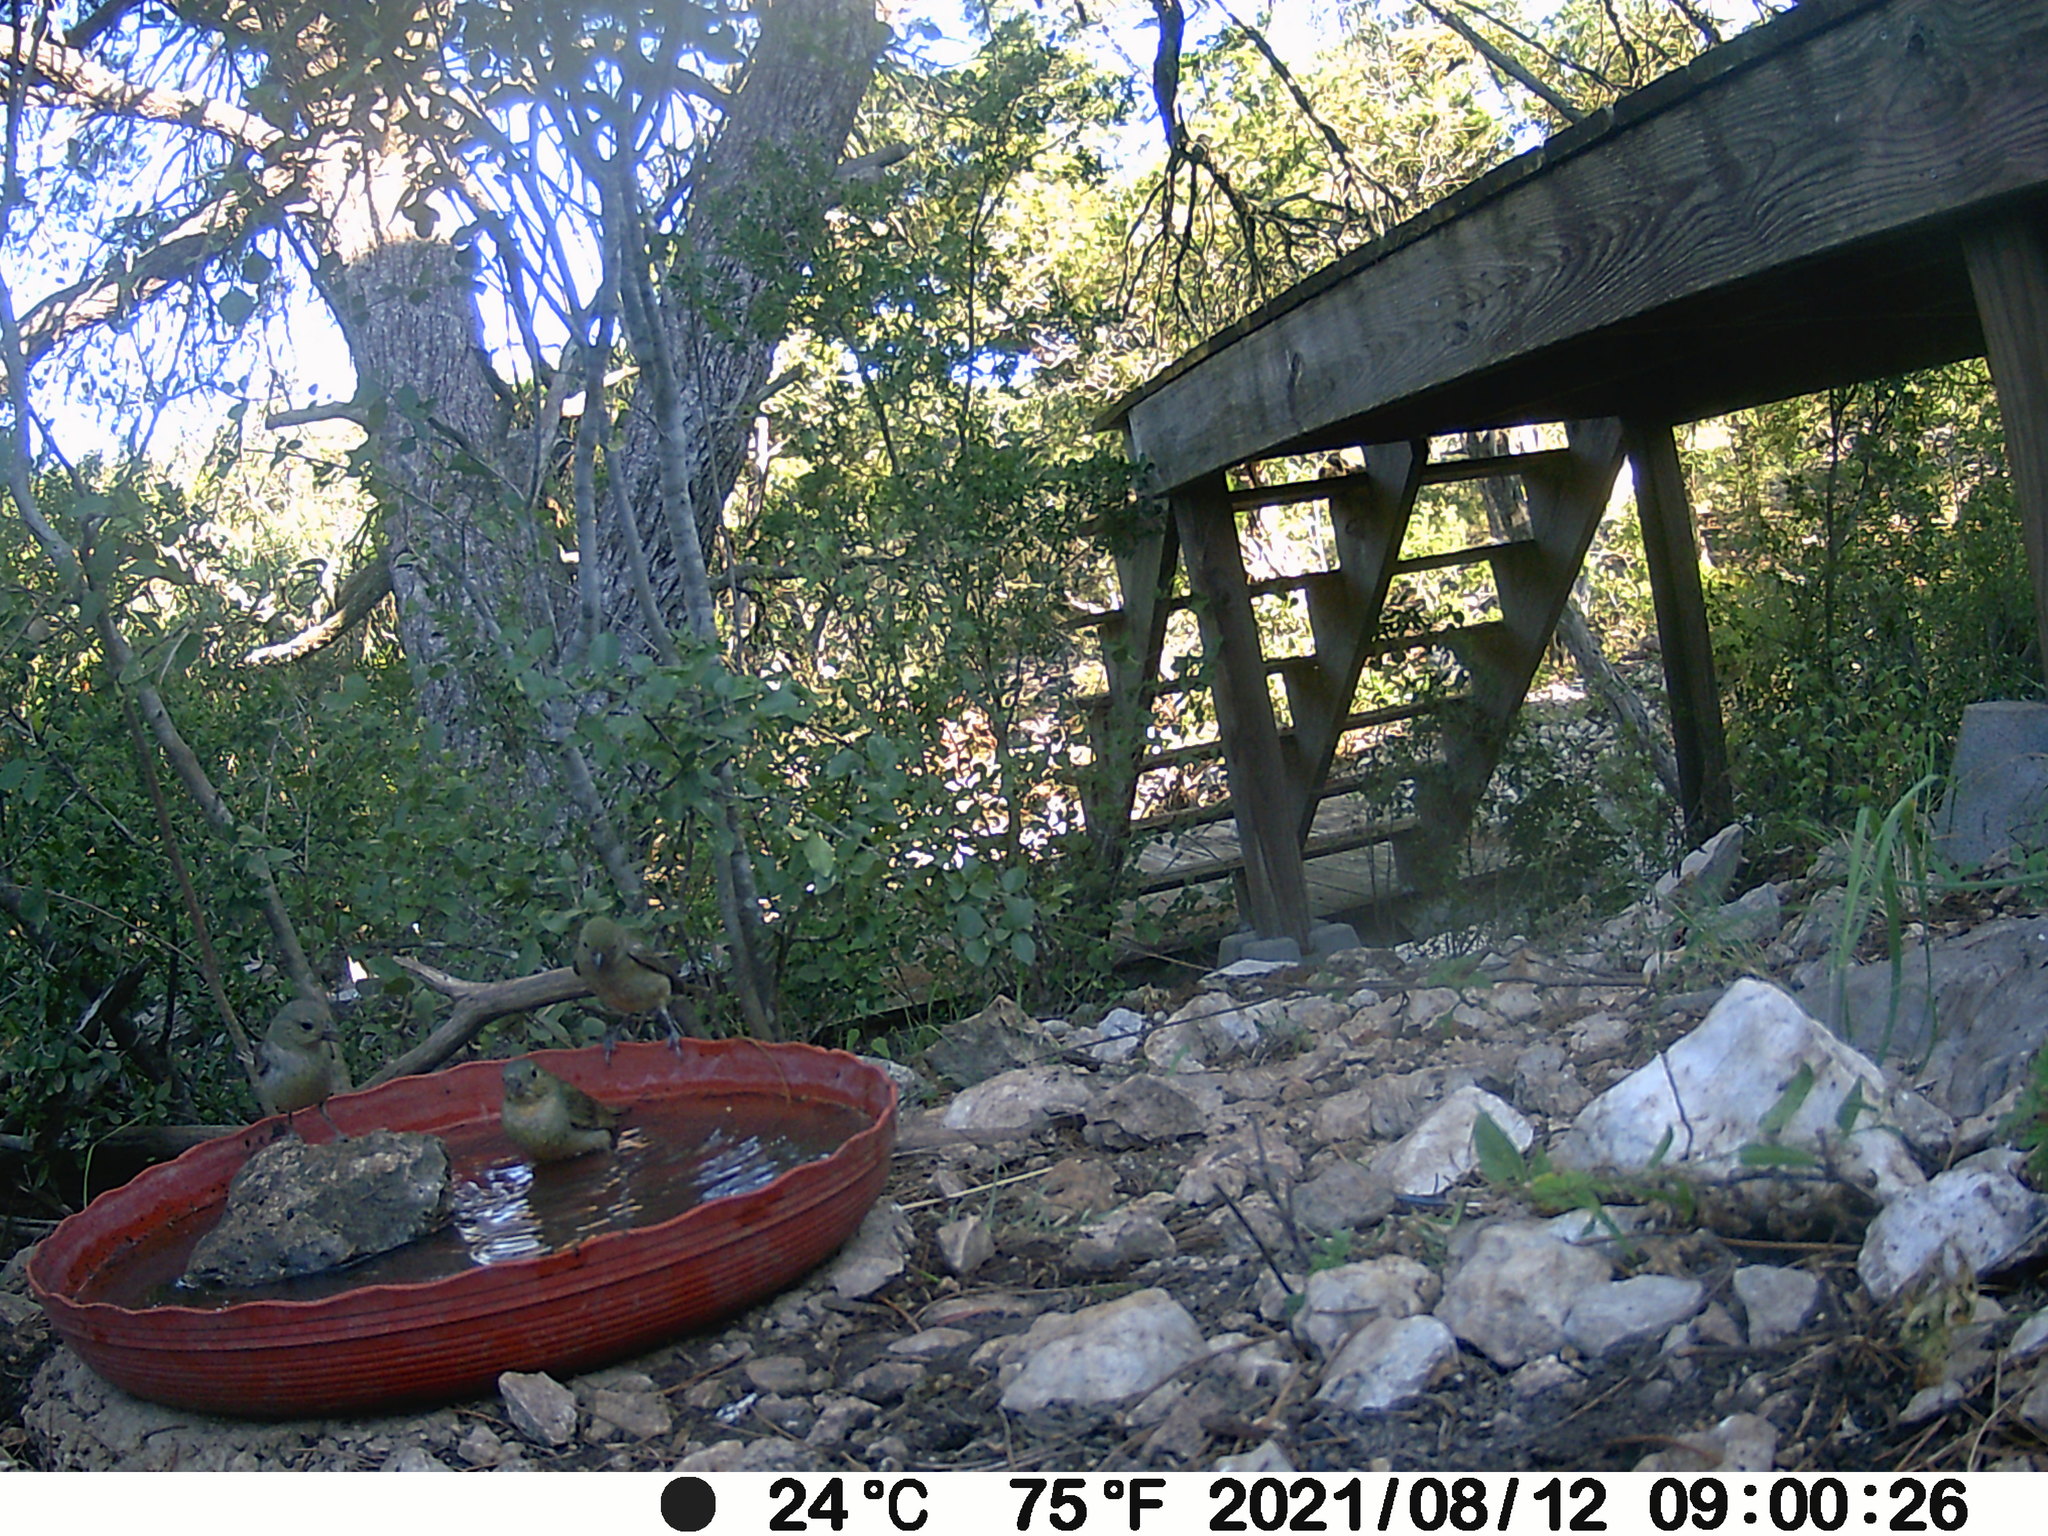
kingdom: Animalia
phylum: Chordata
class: Aves
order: Passeriformes
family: Cardinalidae
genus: Passerina
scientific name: Passerina ciris
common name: Painted bunting
